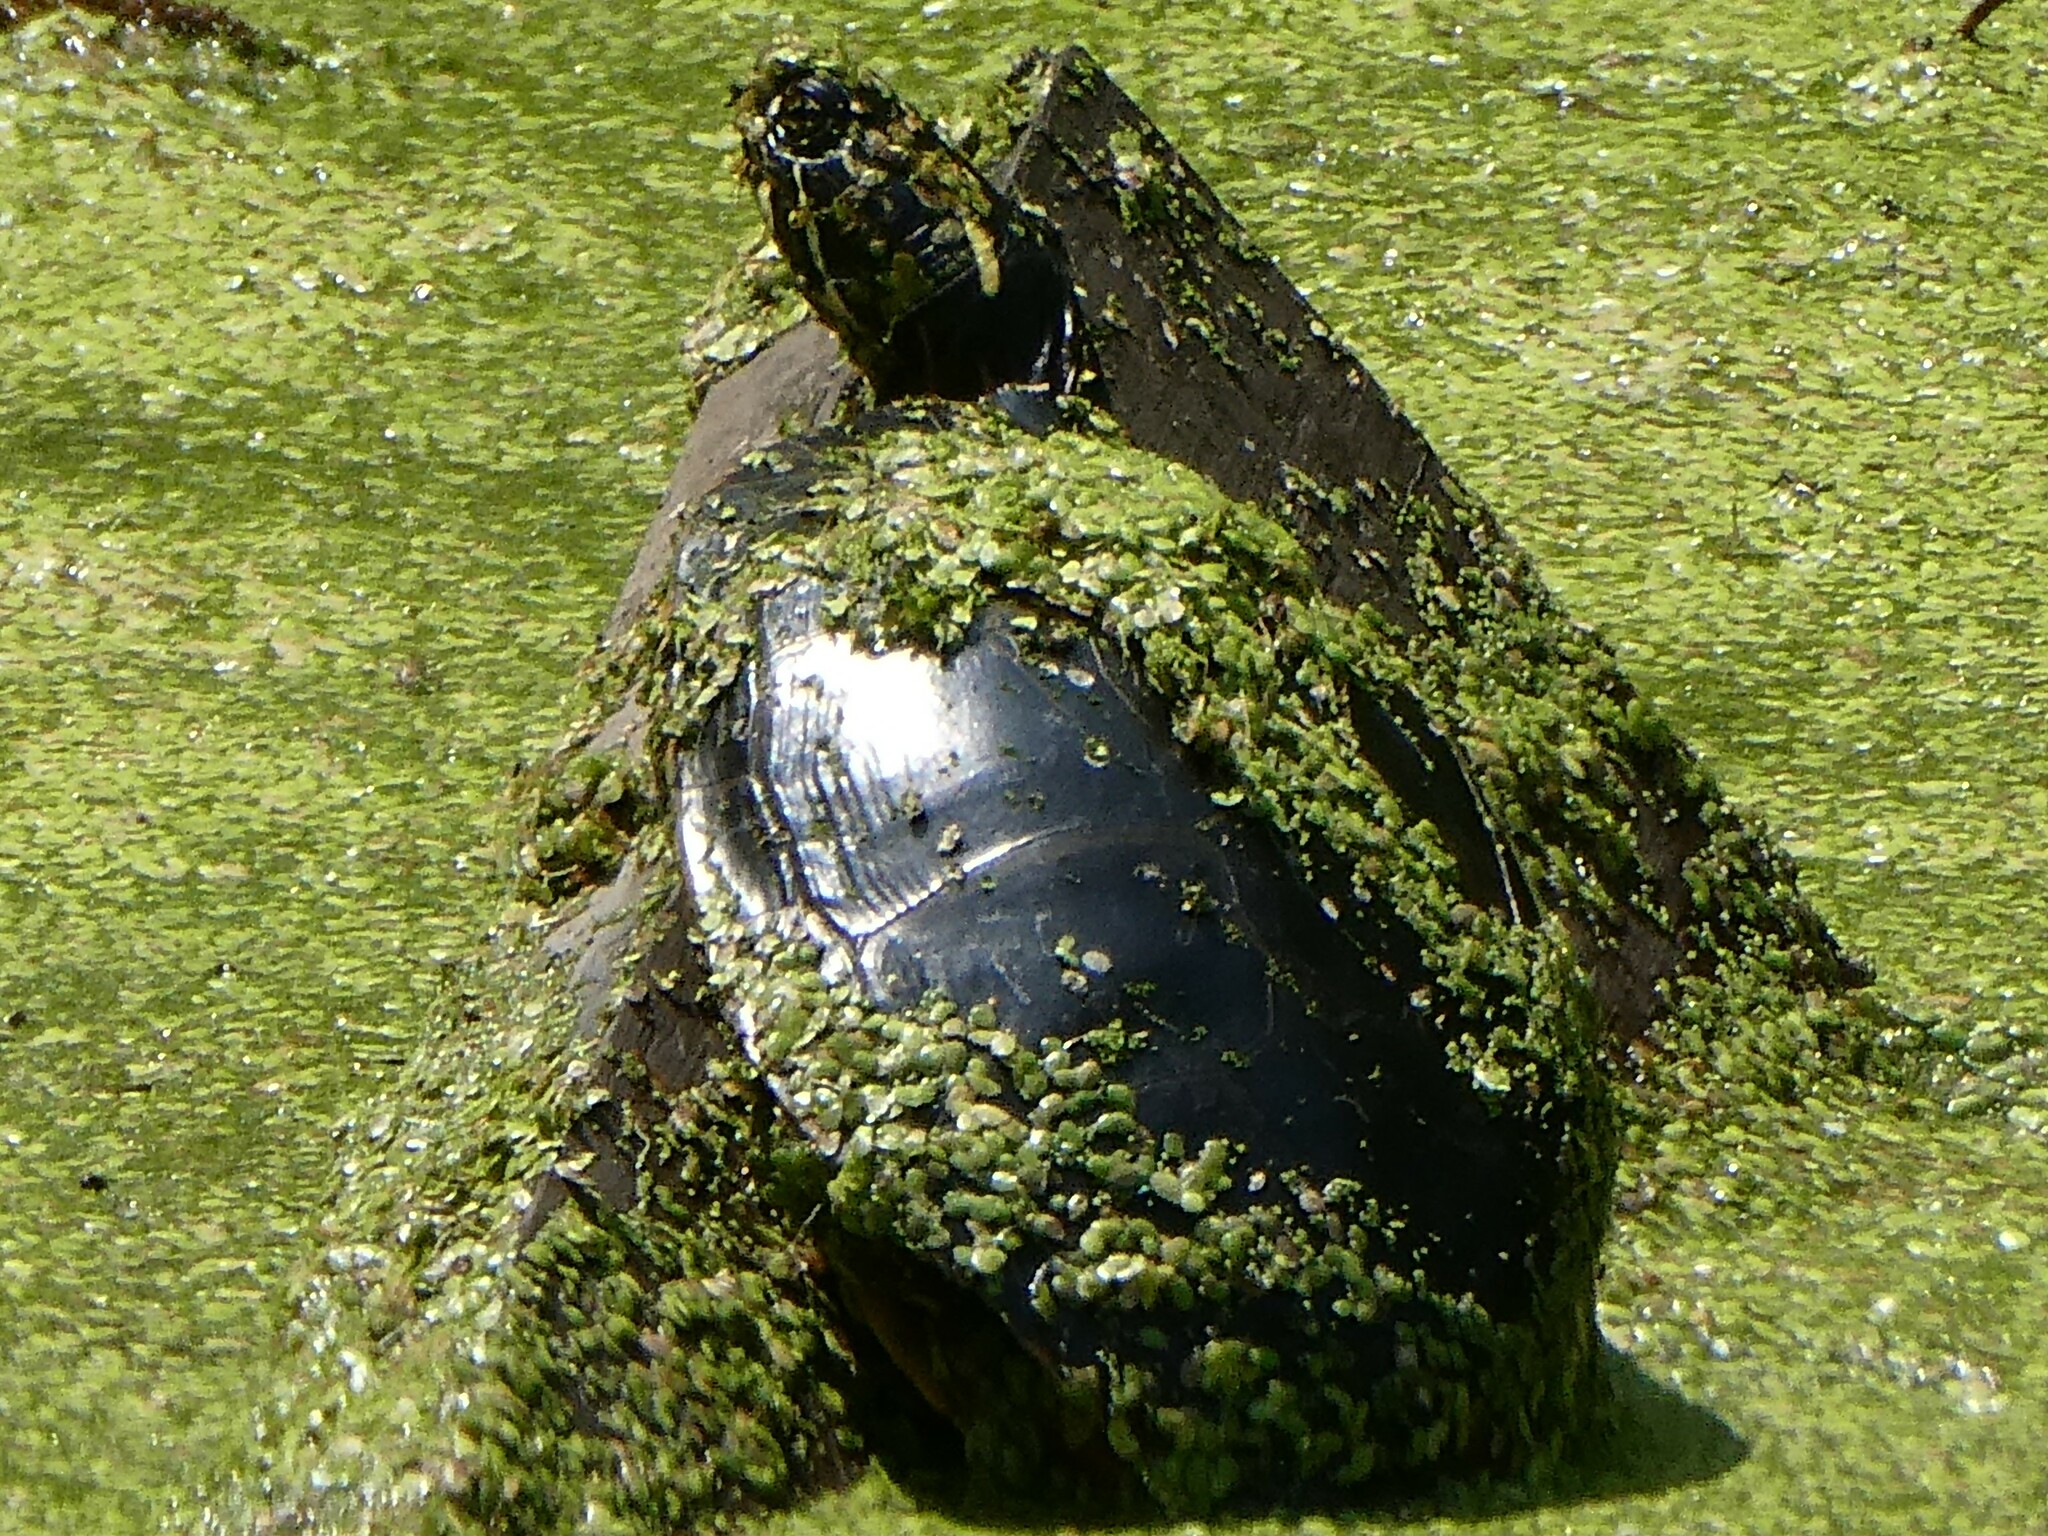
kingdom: Animalia
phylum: Chordata
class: Testudines
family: Emydidae
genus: Chrysemys
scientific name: Chrysemys picta
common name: Painted turtle
